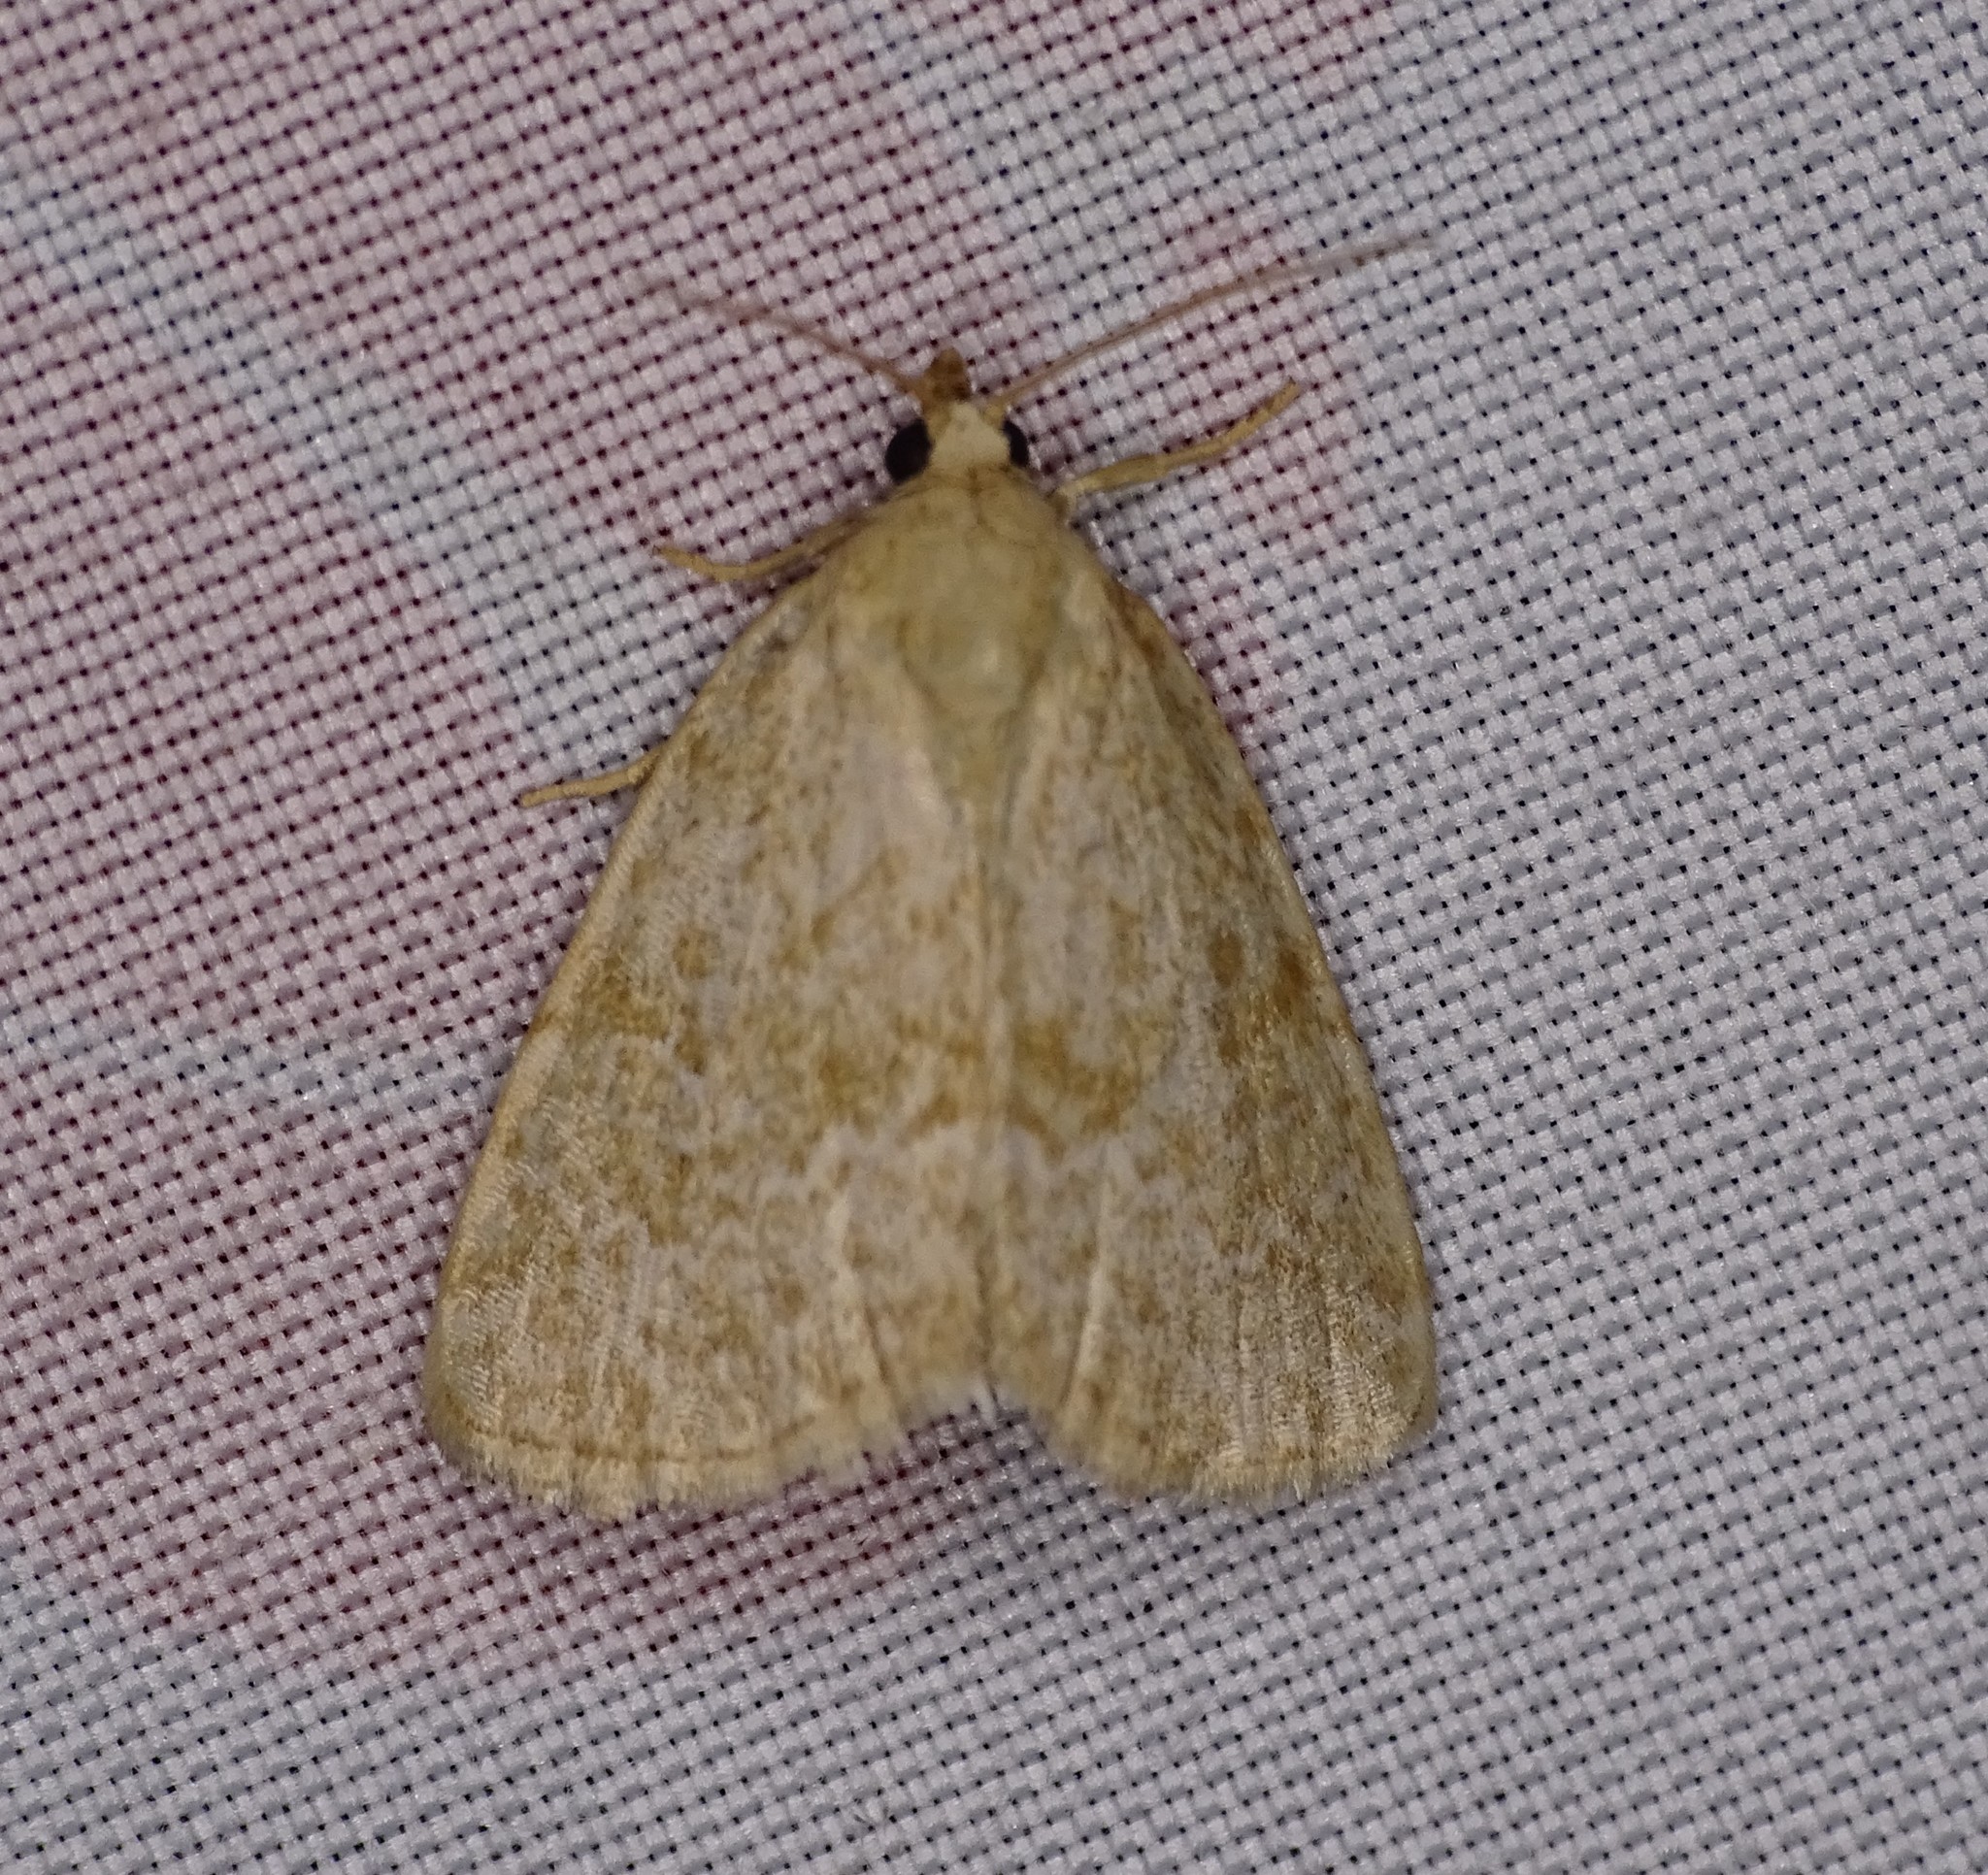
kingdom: Animalia
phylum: Arthropoda
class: Insecta
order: Lepidoptera
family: Noctuidae
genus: Protodeltote
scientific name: Protodeltote albidula
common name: Pale glyph
